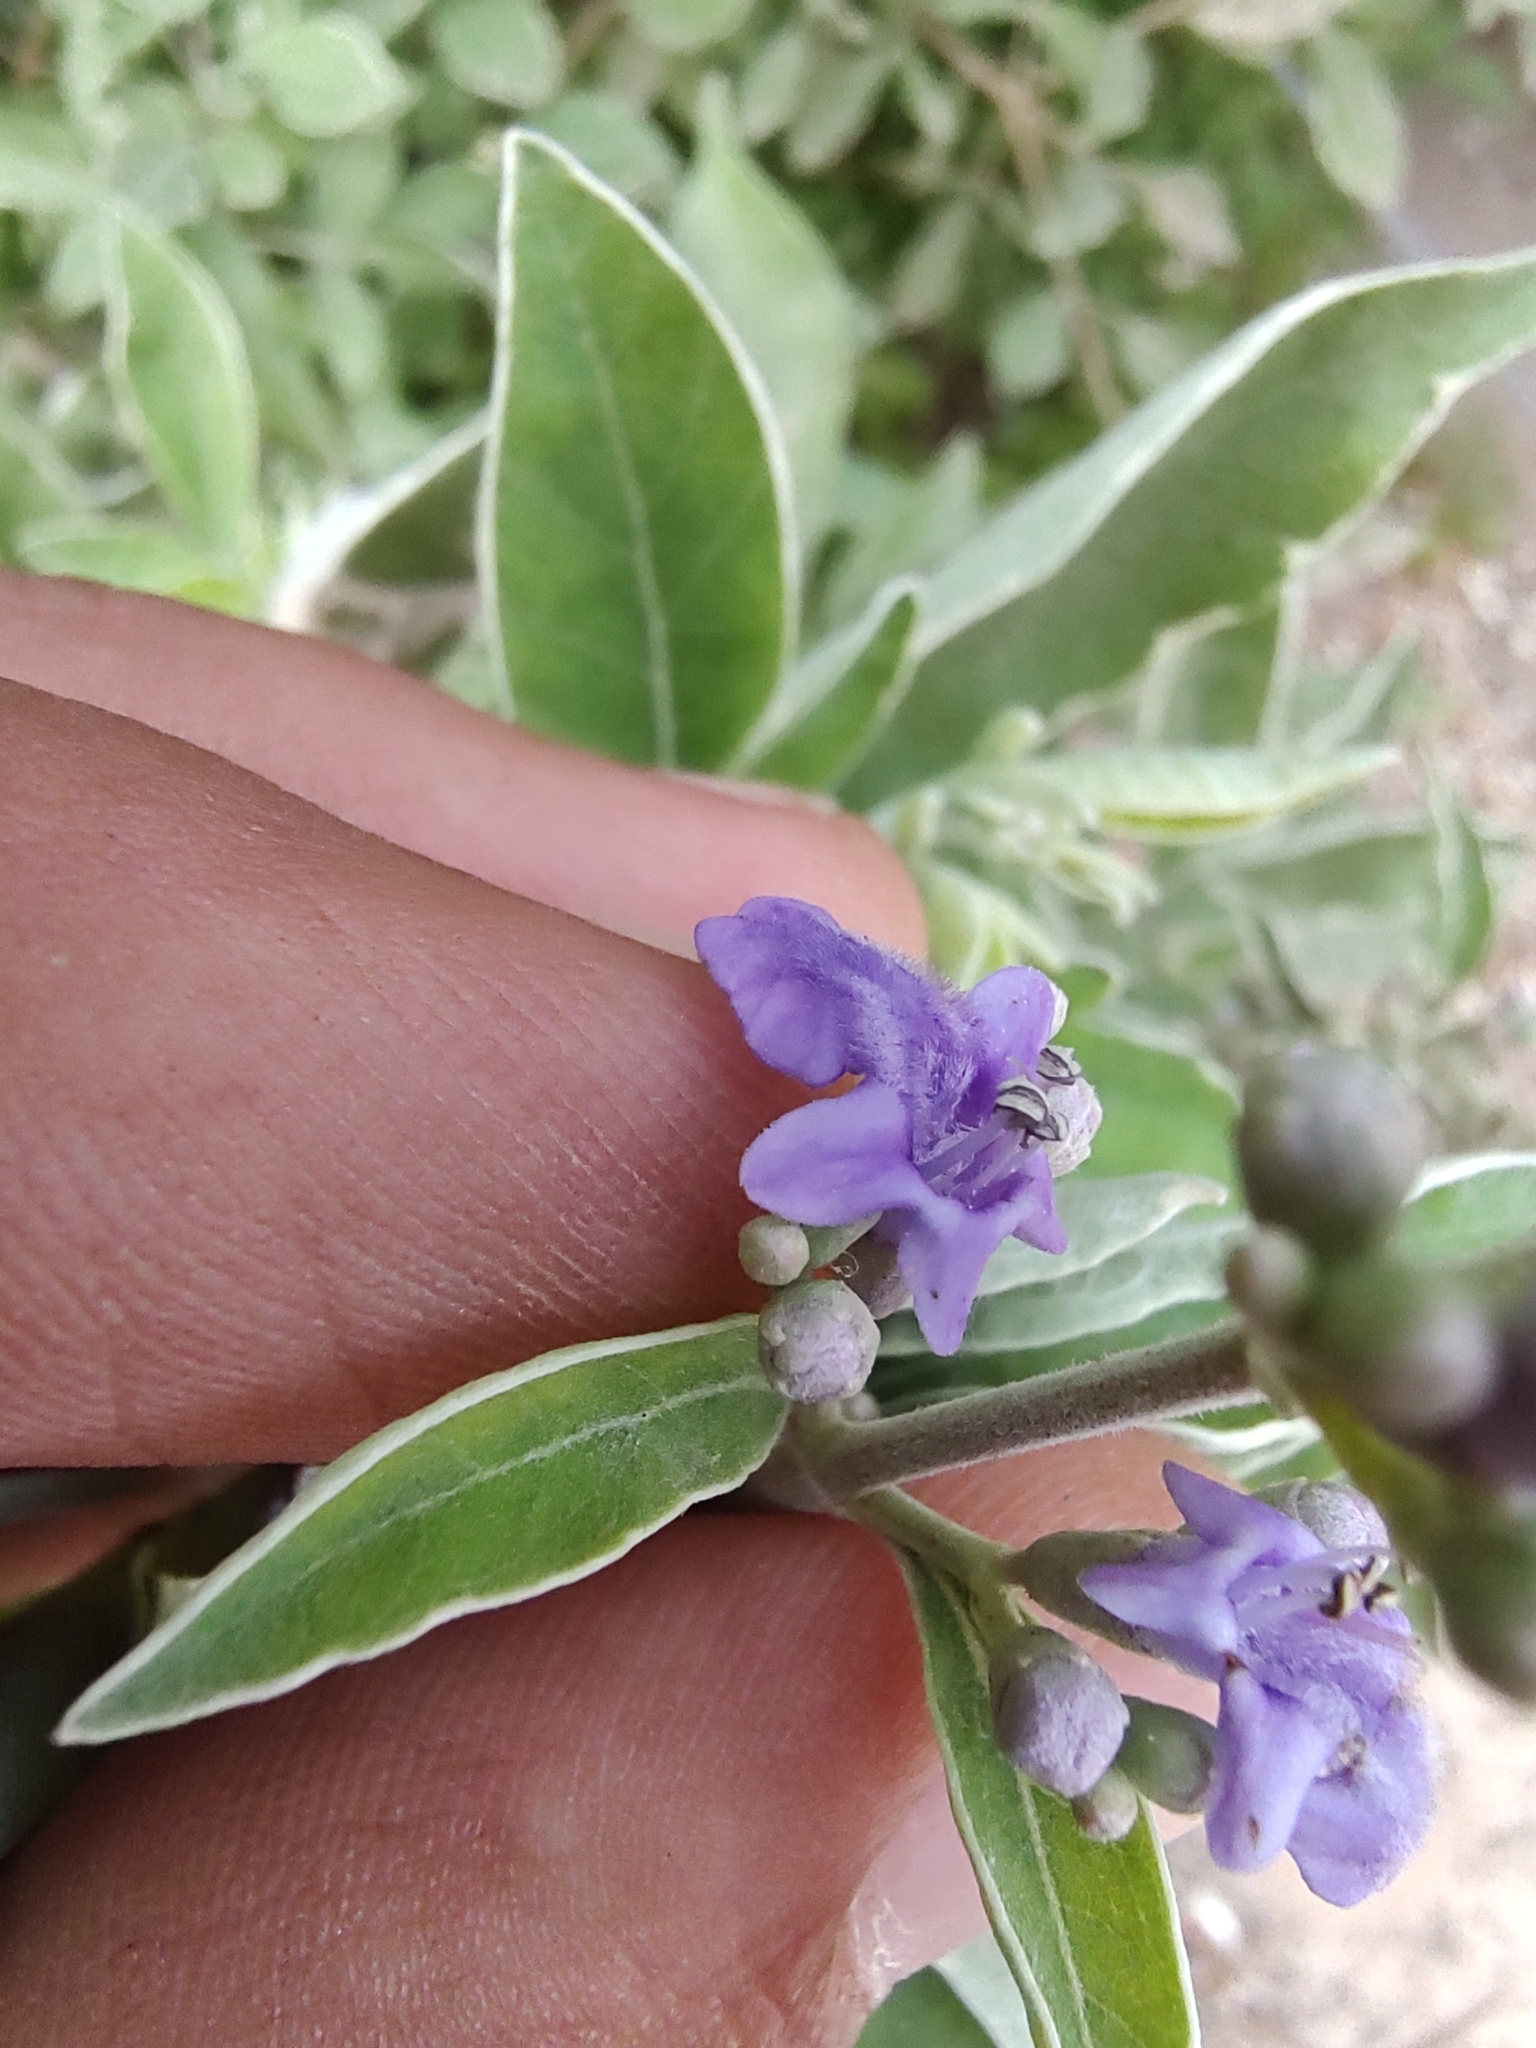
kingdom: Plantae
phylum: Tracheophyta
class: Magnoliopsida
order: Lamiales
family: Lamiaceae
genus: Vitex
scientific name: Vitex trifolia
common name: Simpleleaf chastetree
